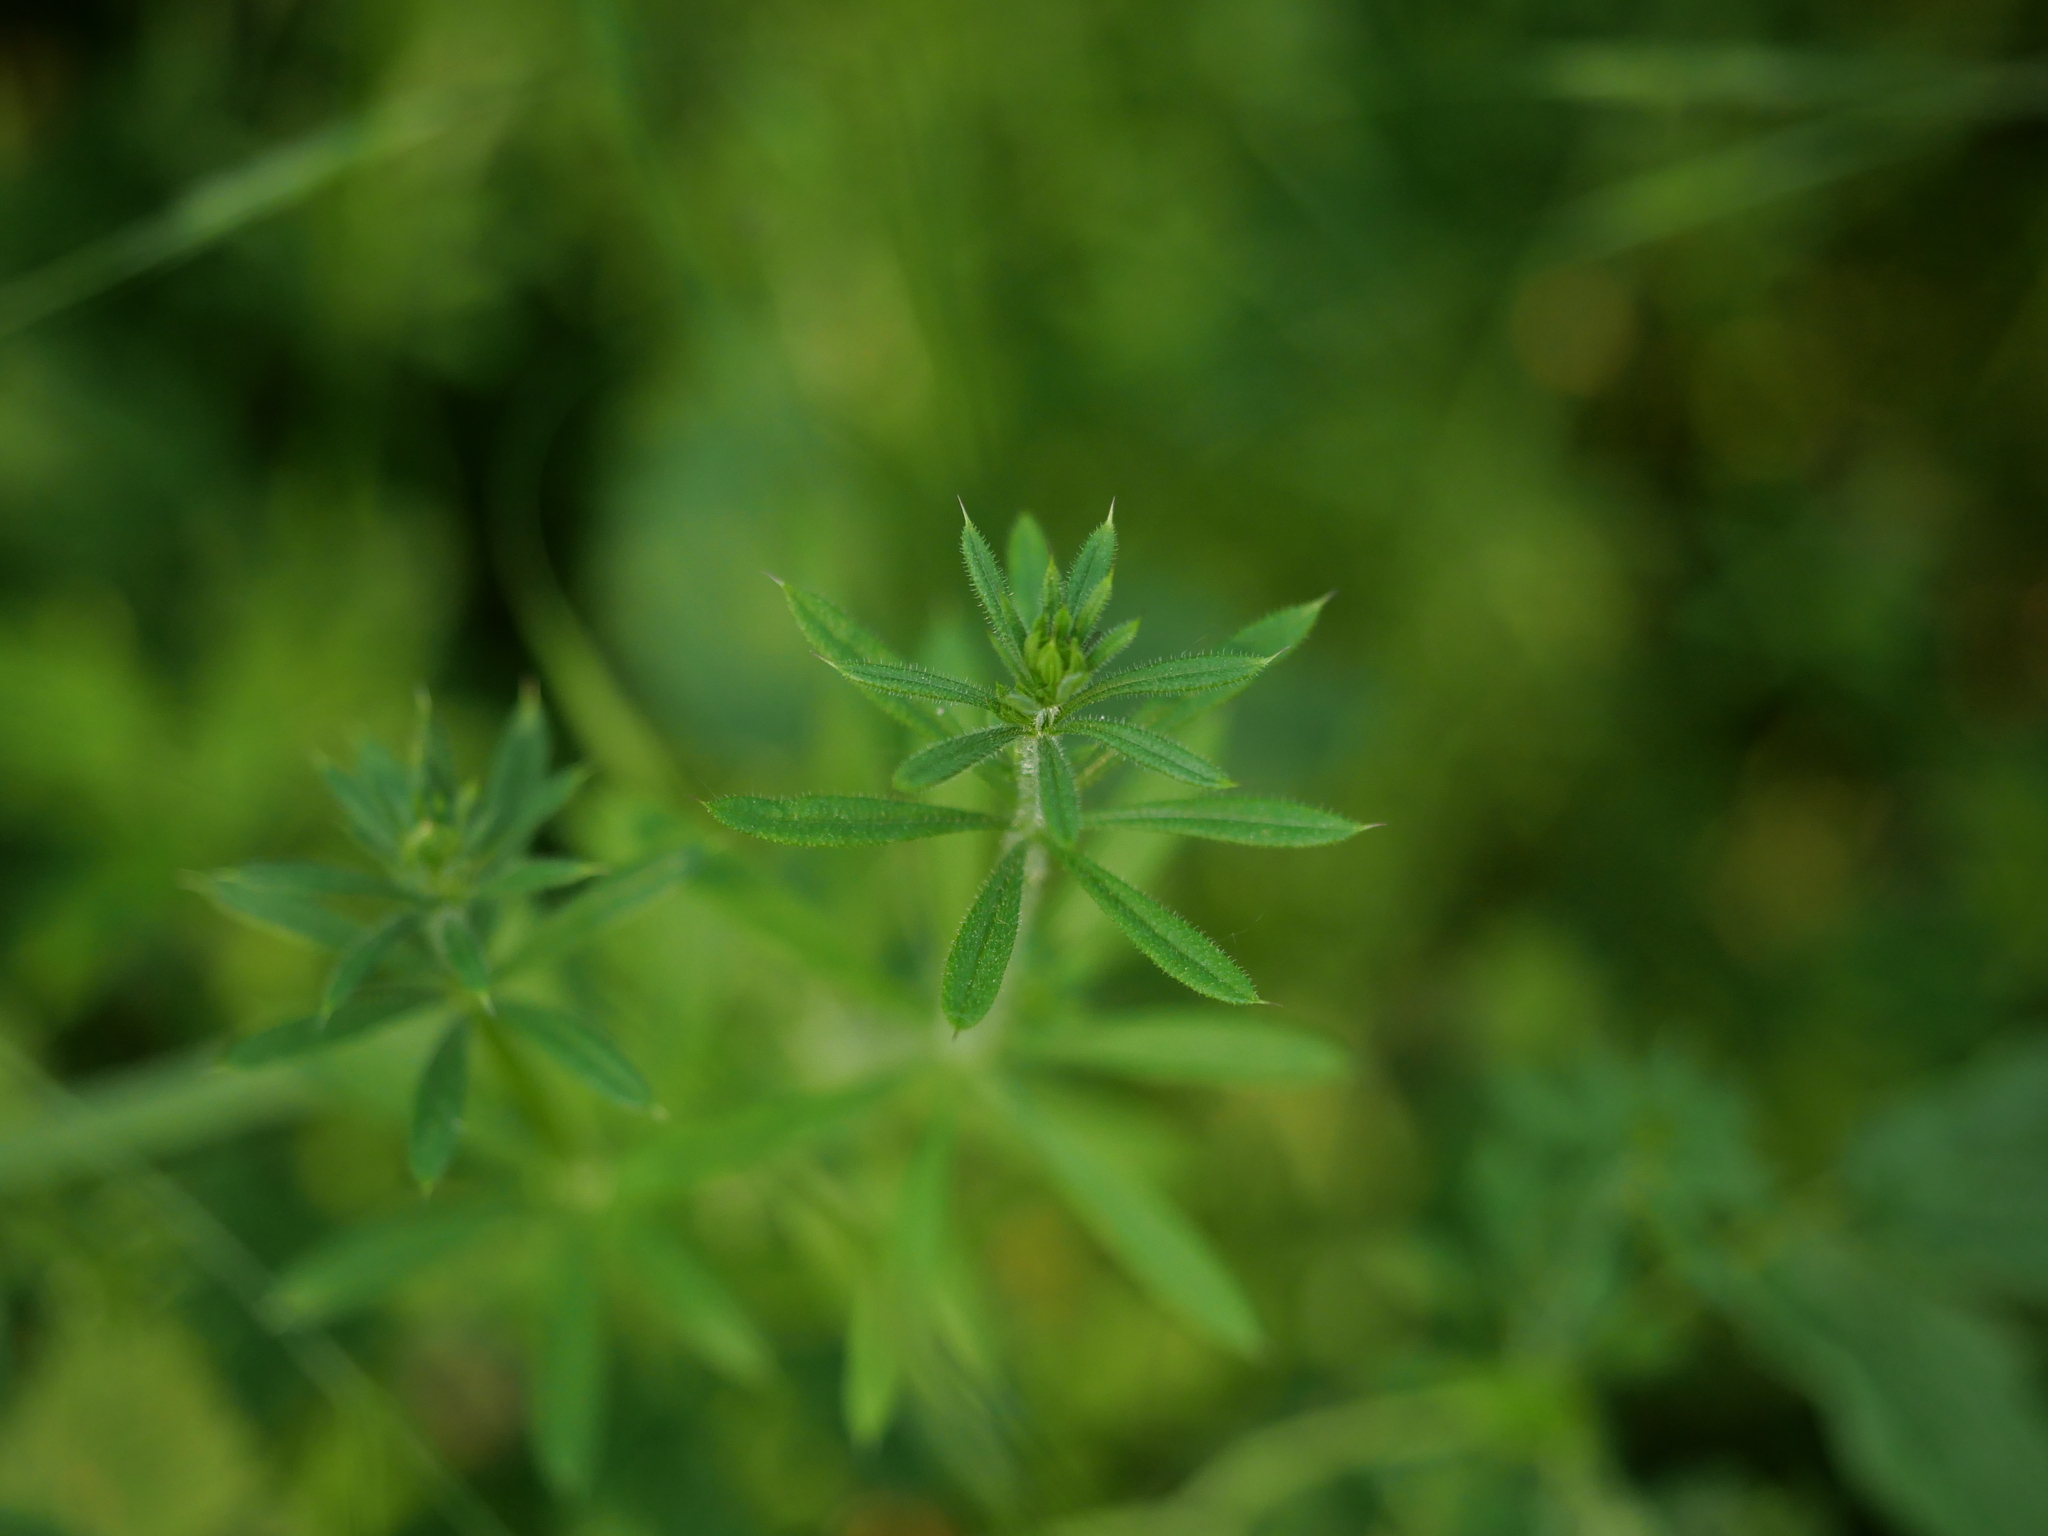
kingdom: Plantae
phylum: Tracheophyta
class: Magnoliopsida
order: Gentianales
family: Rubiaceae
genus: Galium
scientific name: Galium aparine
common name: Cleavers
